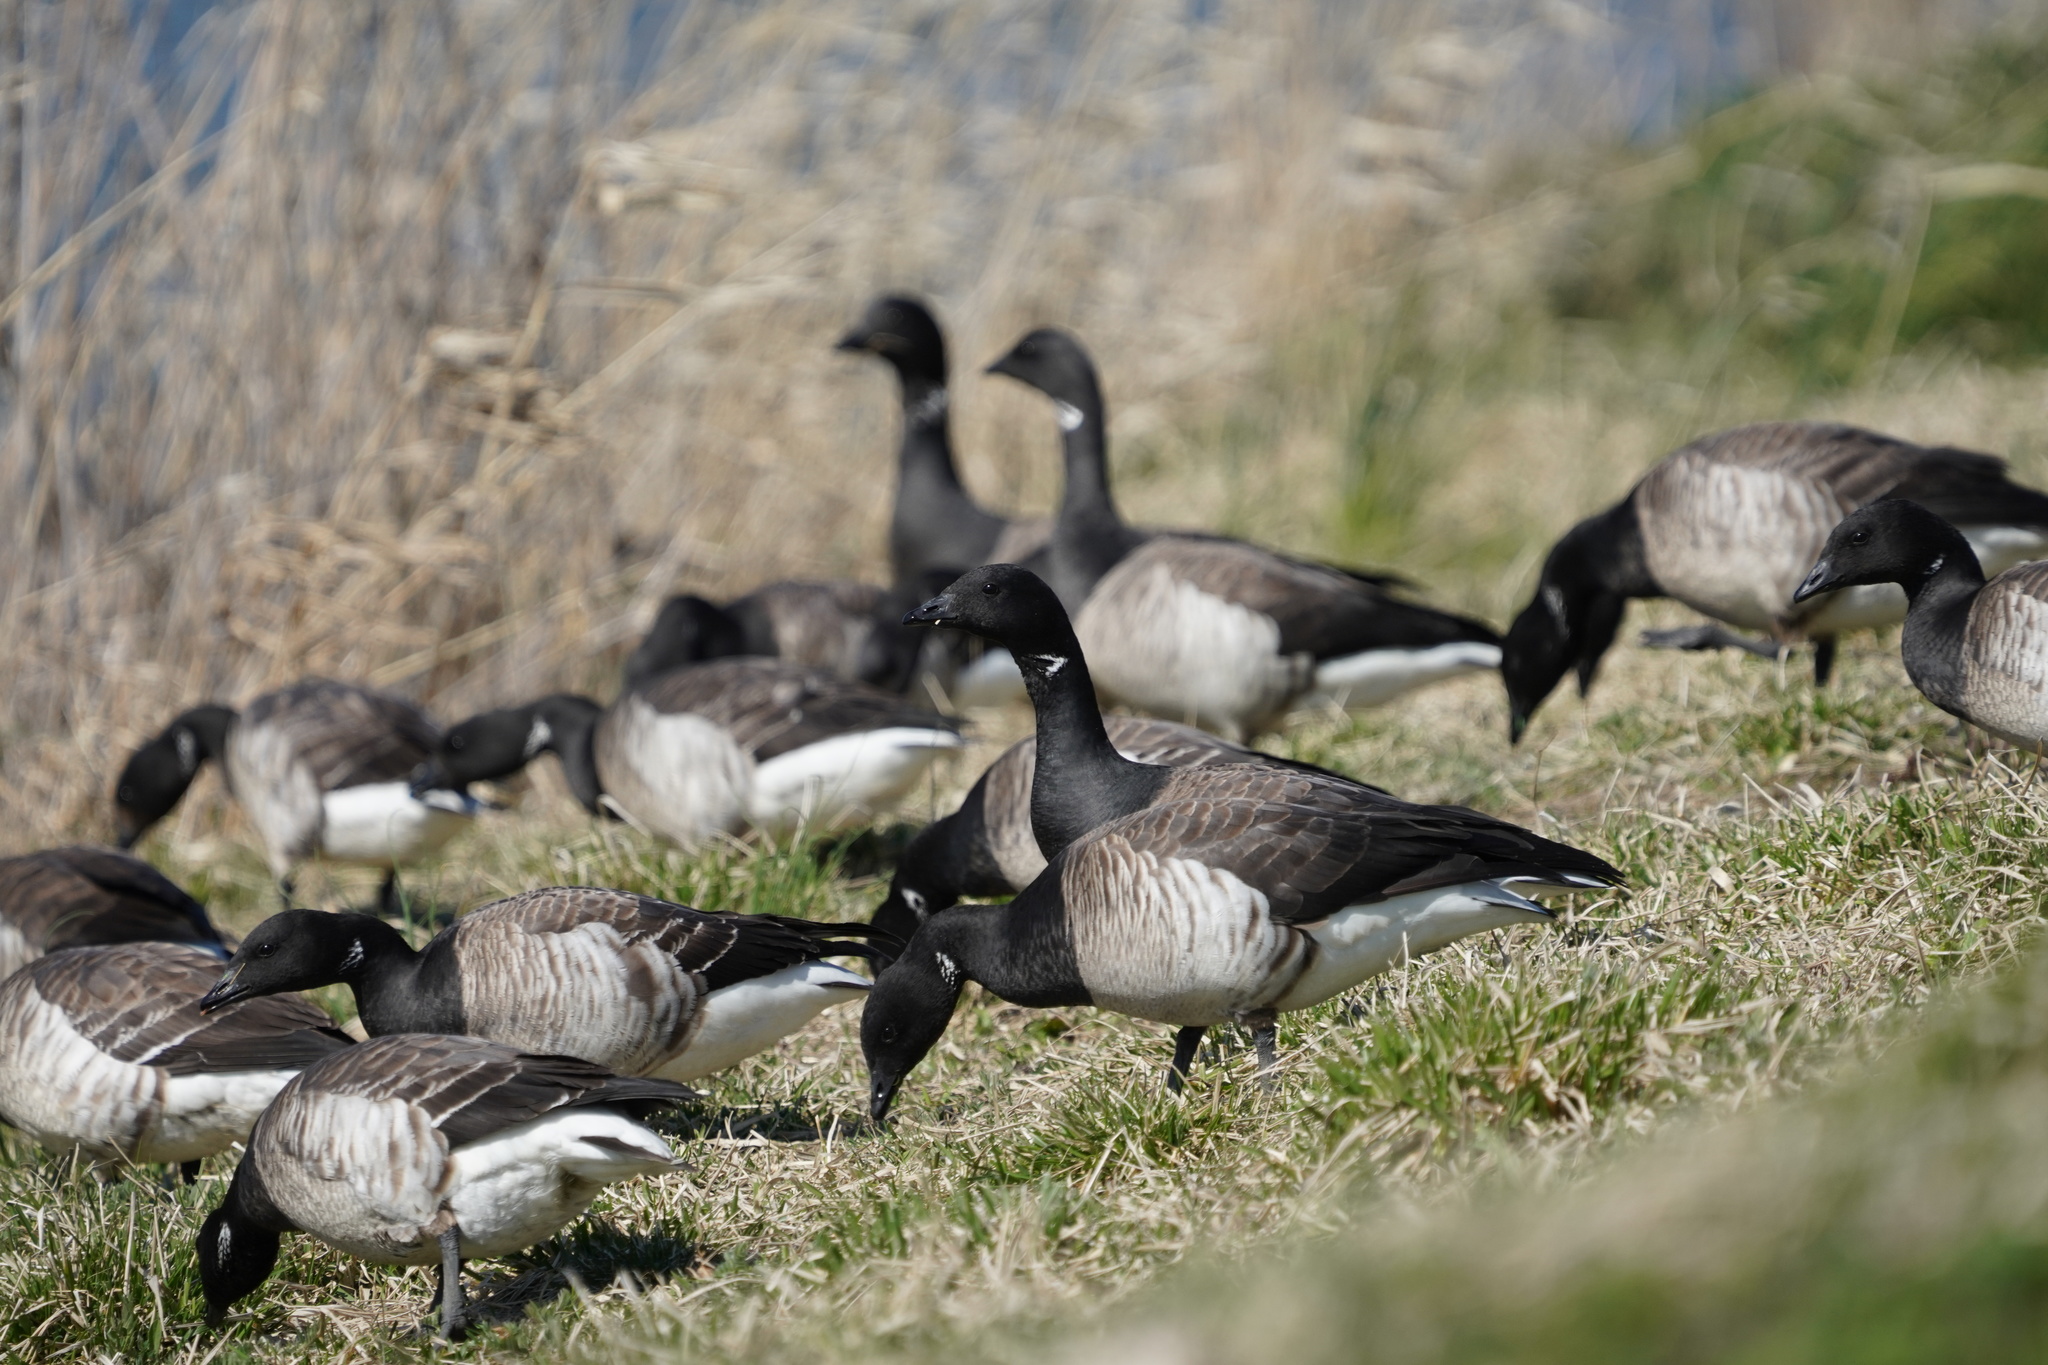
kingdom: Animalia
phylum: Chordata
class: Aves
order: Anseriformes
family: Anatidae
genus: Branta
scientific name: Branta bernicla
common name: Brant goose
